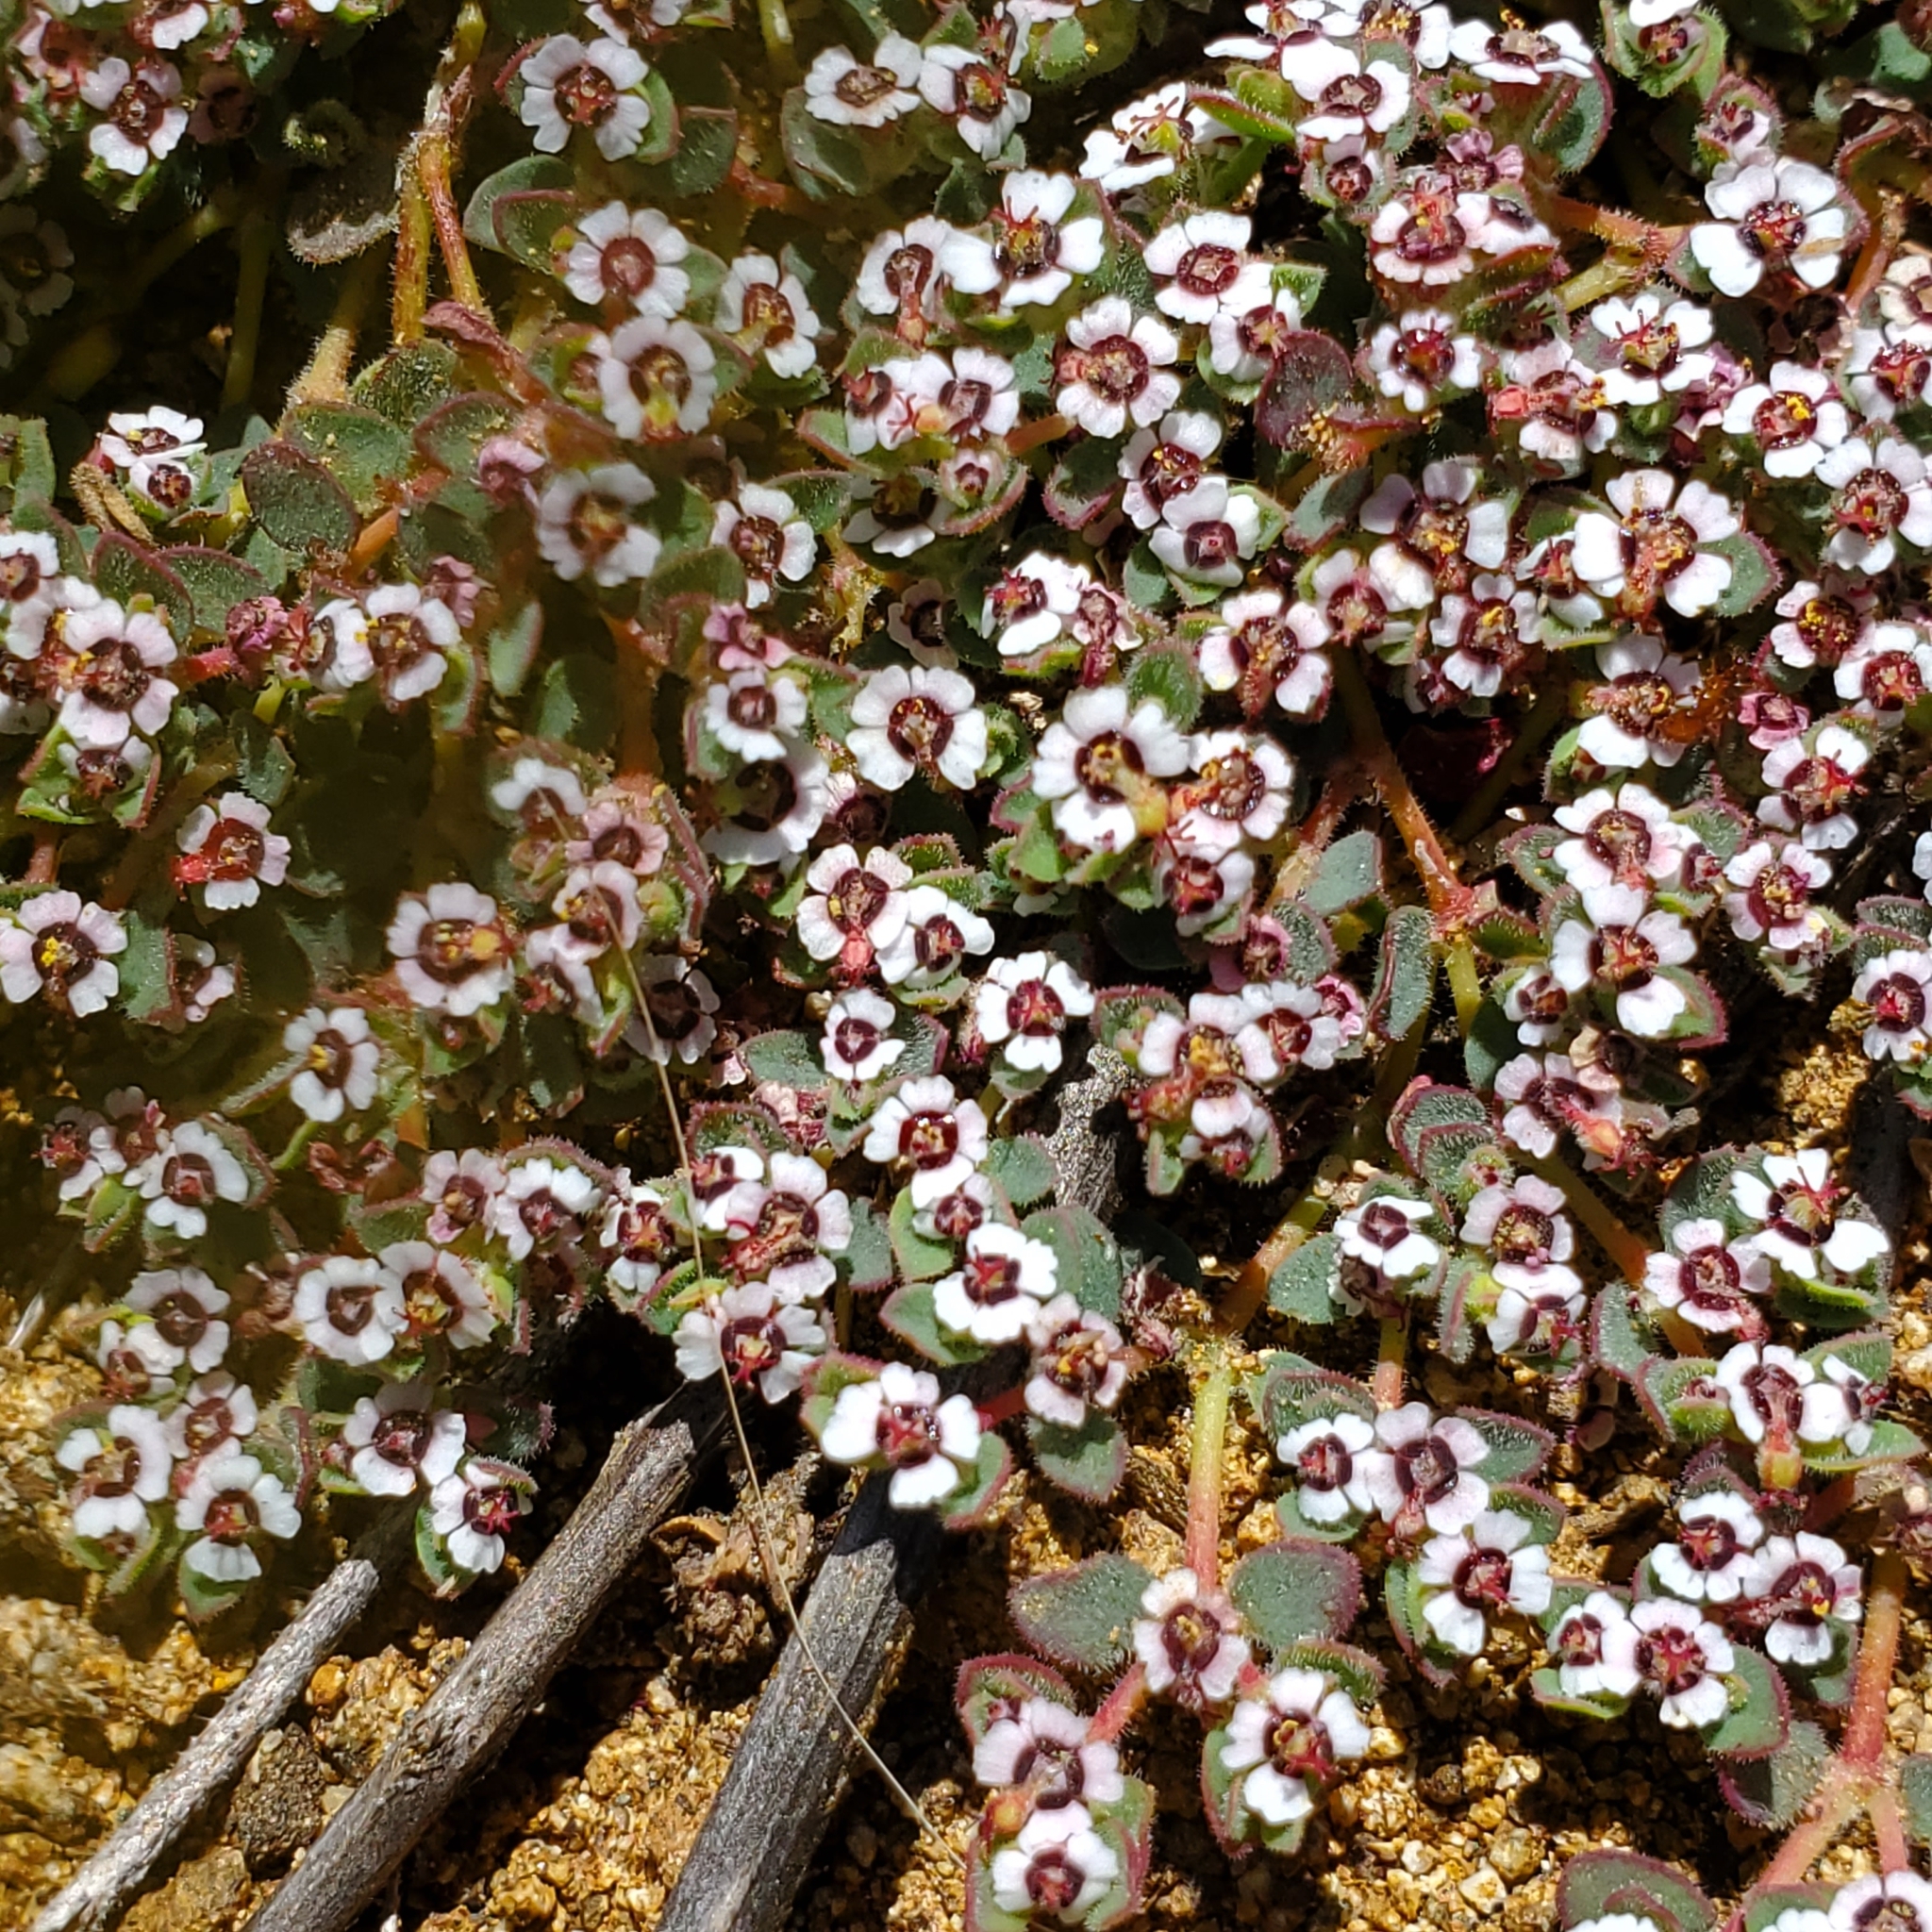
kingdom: Plantae
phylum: Tracheophyta
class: Magnoliopsida
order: Malpighiales
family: Euphorbiaceae
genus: Euphorbia
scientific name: Euphorbia polycarpa
